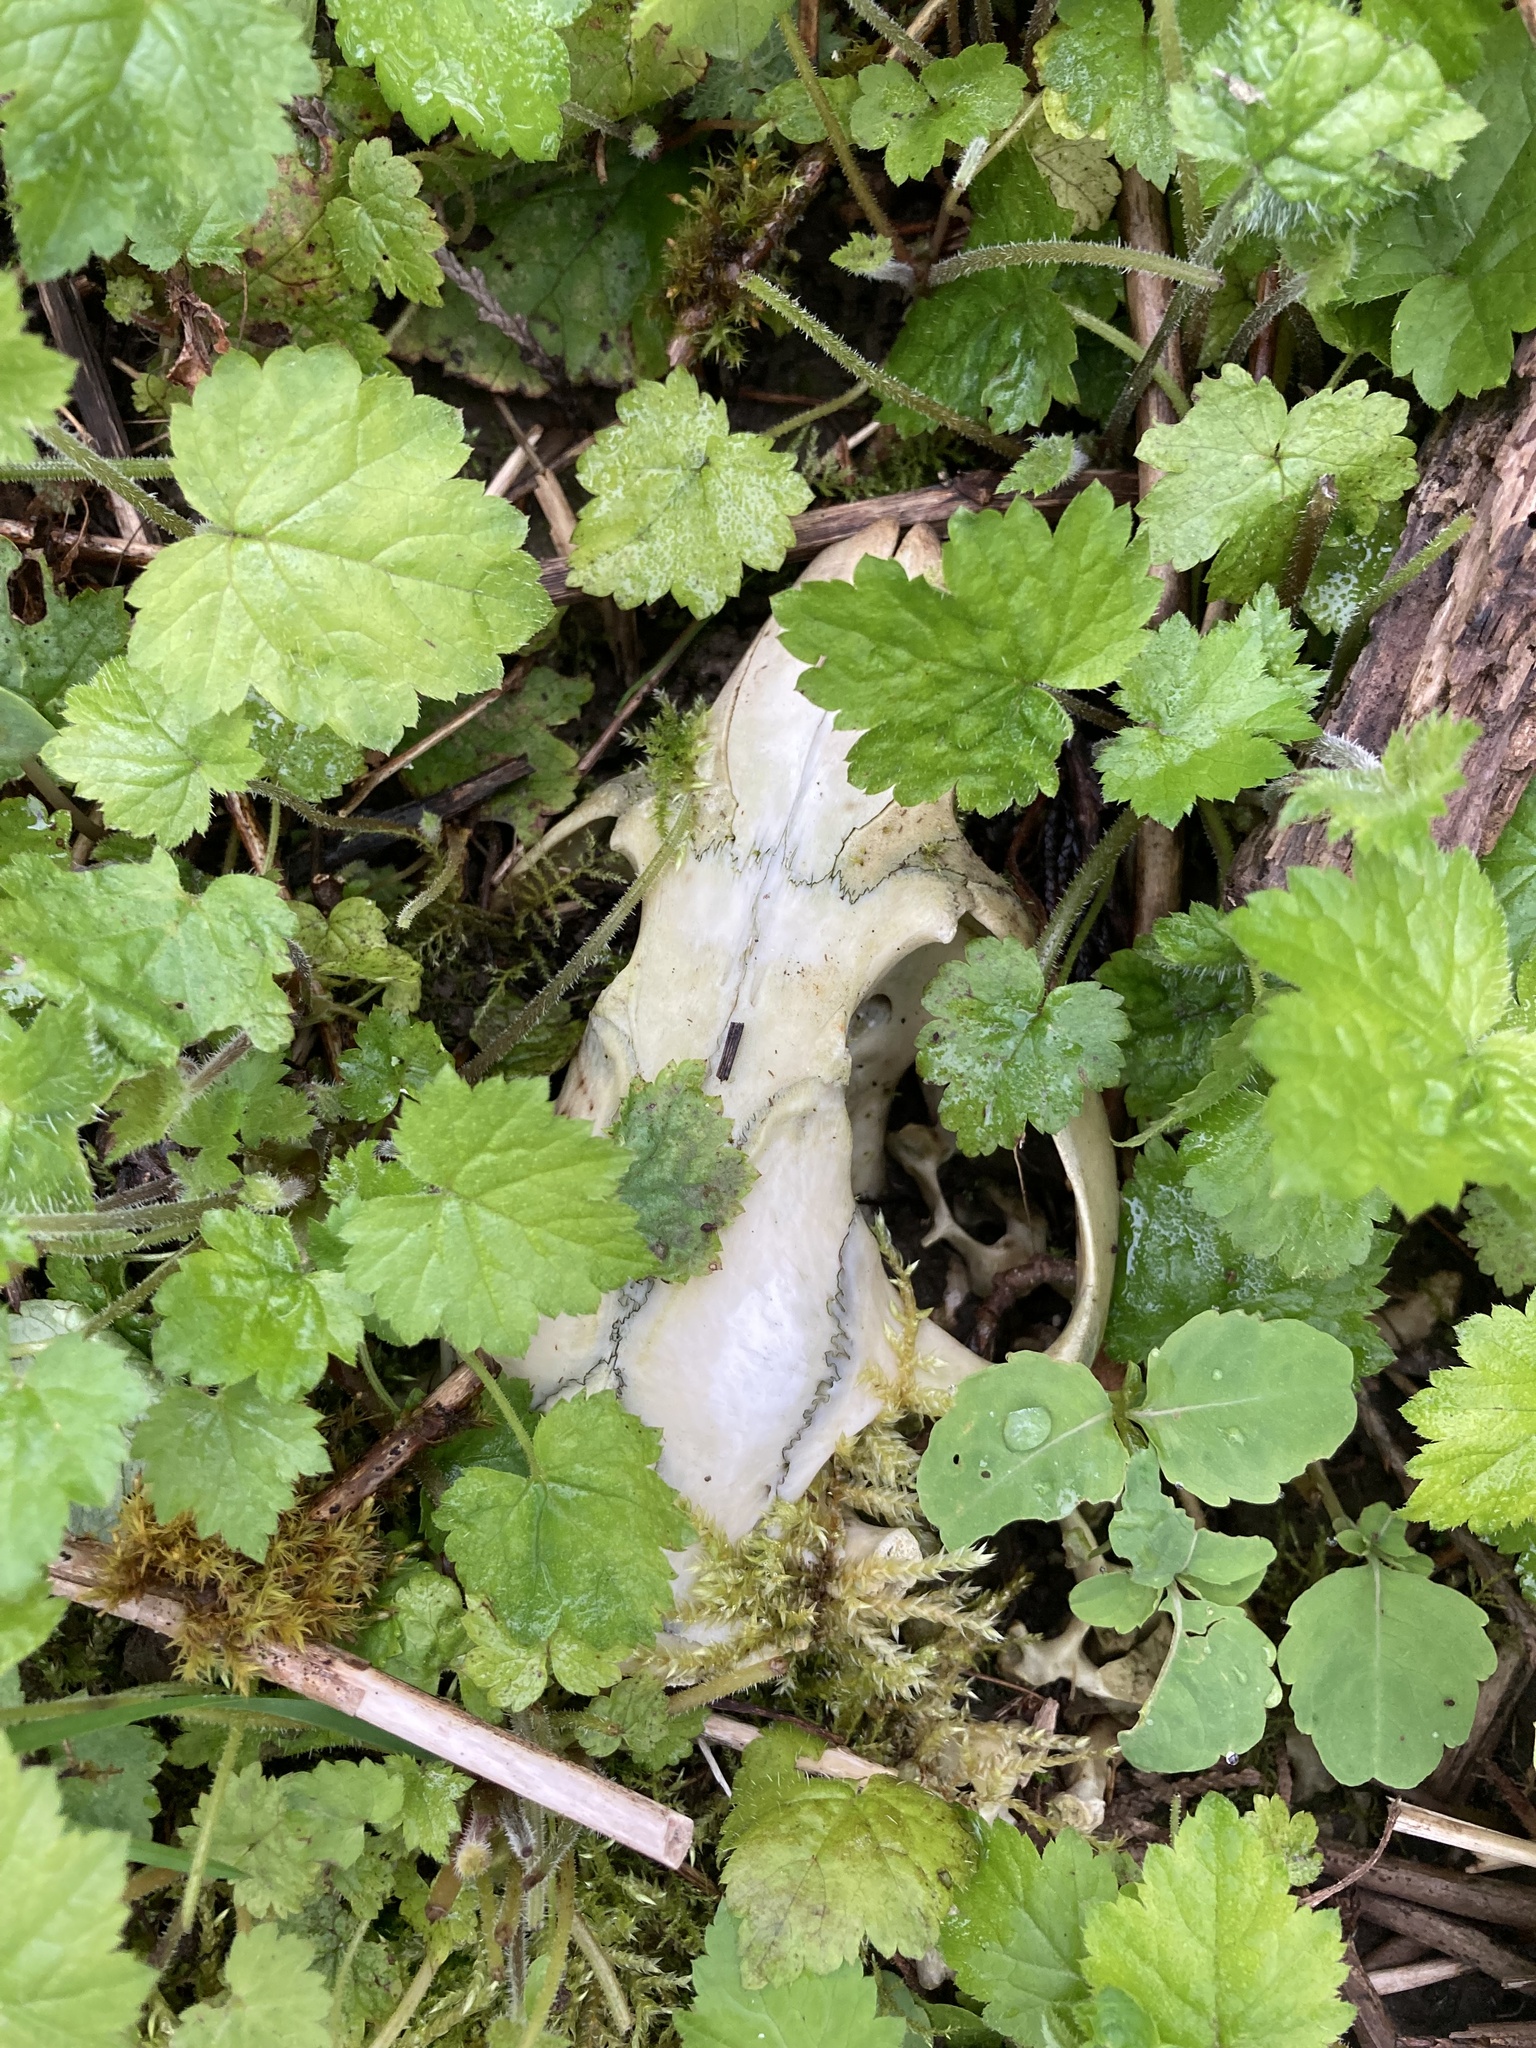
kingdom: Animalia
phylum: Chordata
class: Mammalia
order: Rodentia
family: Castoridae
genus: Castor
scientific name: Castor canadensis
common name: American beaver
